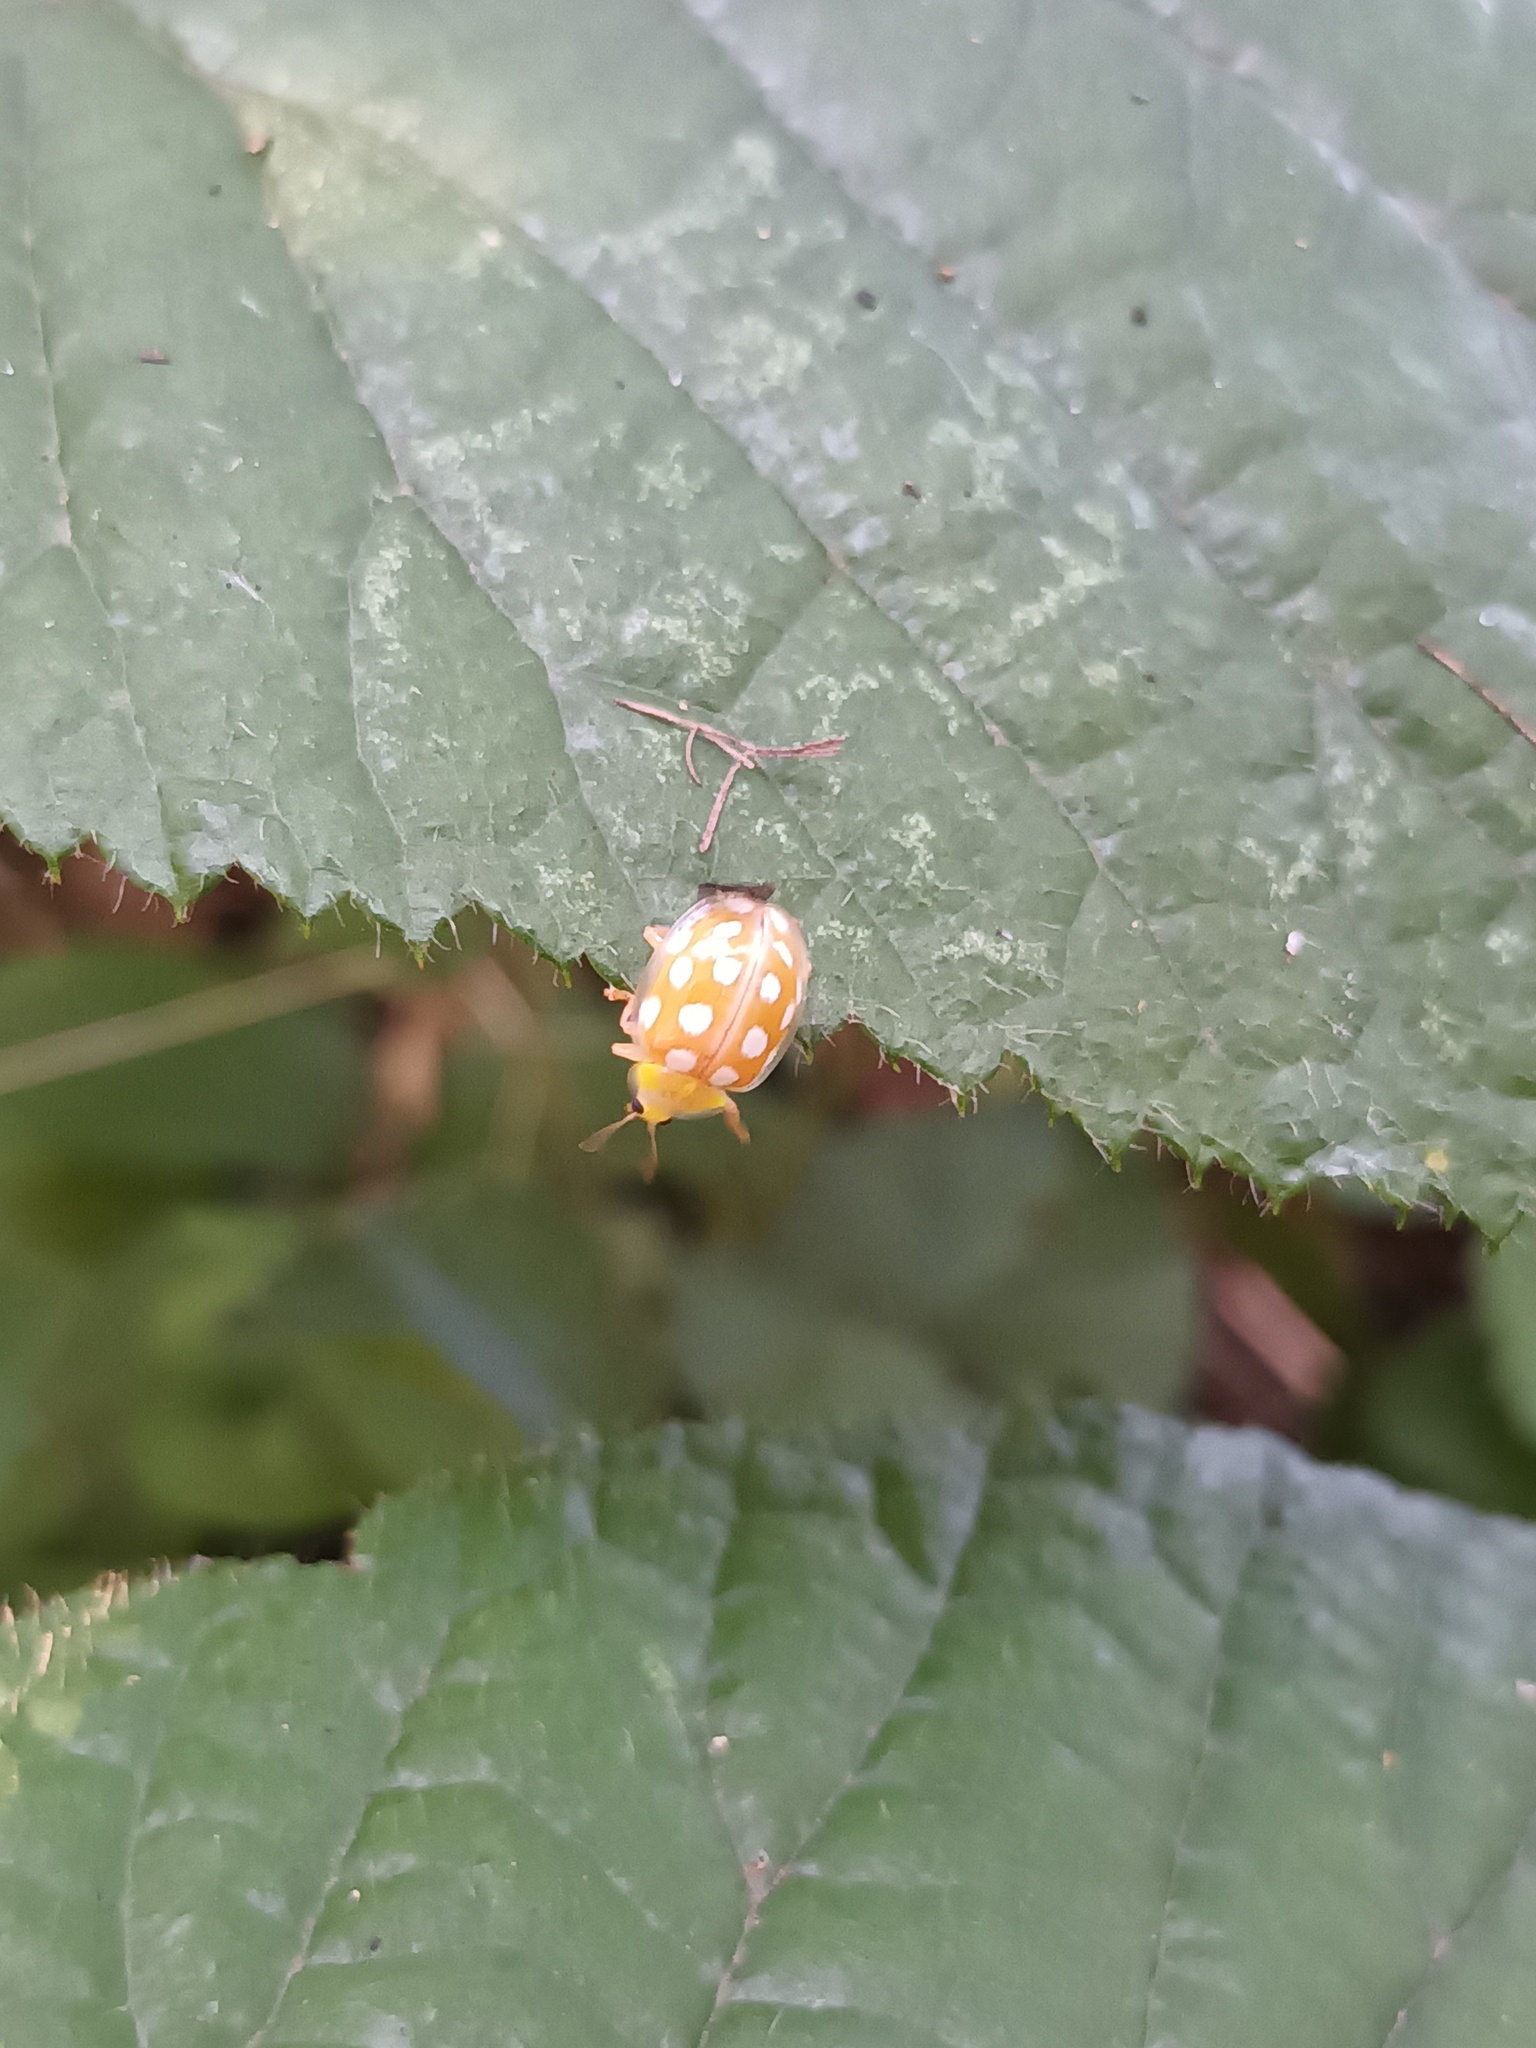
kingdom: Animalia
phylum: Arthropoda
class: Insecta
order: Coleoptera
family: Coccinellidae
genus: Halyzia
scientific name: Halyzia sedecimguttata
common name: Orange ladybird
